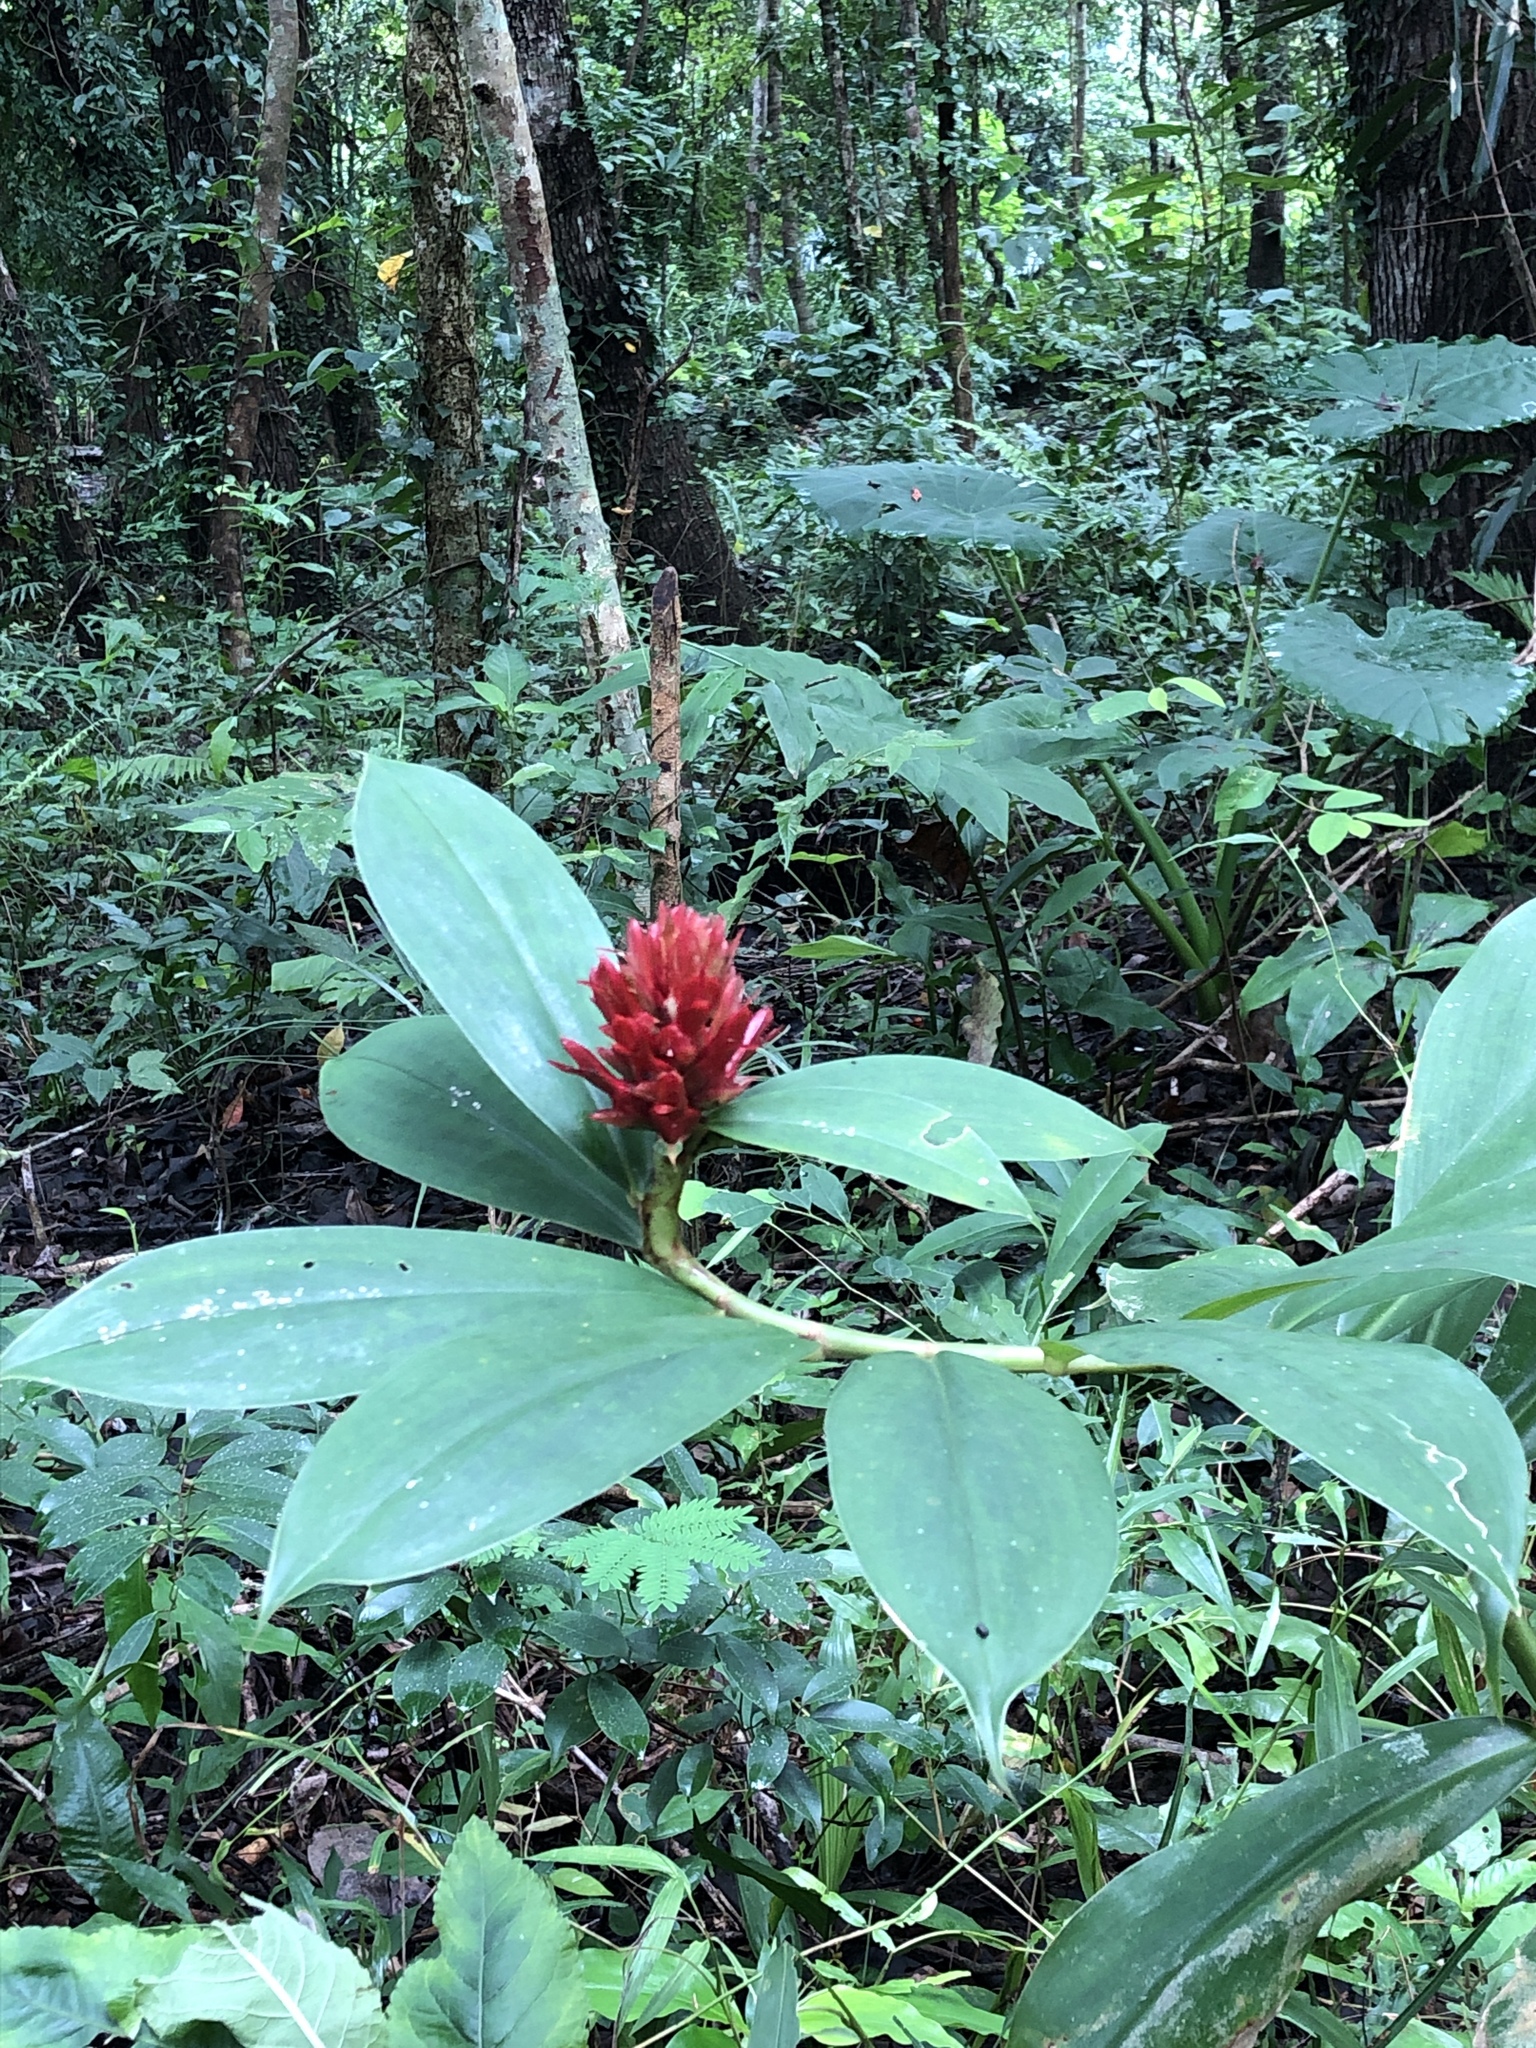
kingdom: Plantae
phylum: Tracheophyta
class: Liliopsida
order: Zingiberales
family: Costaceae
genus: Hellenia
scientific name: Hellenia speciosa
